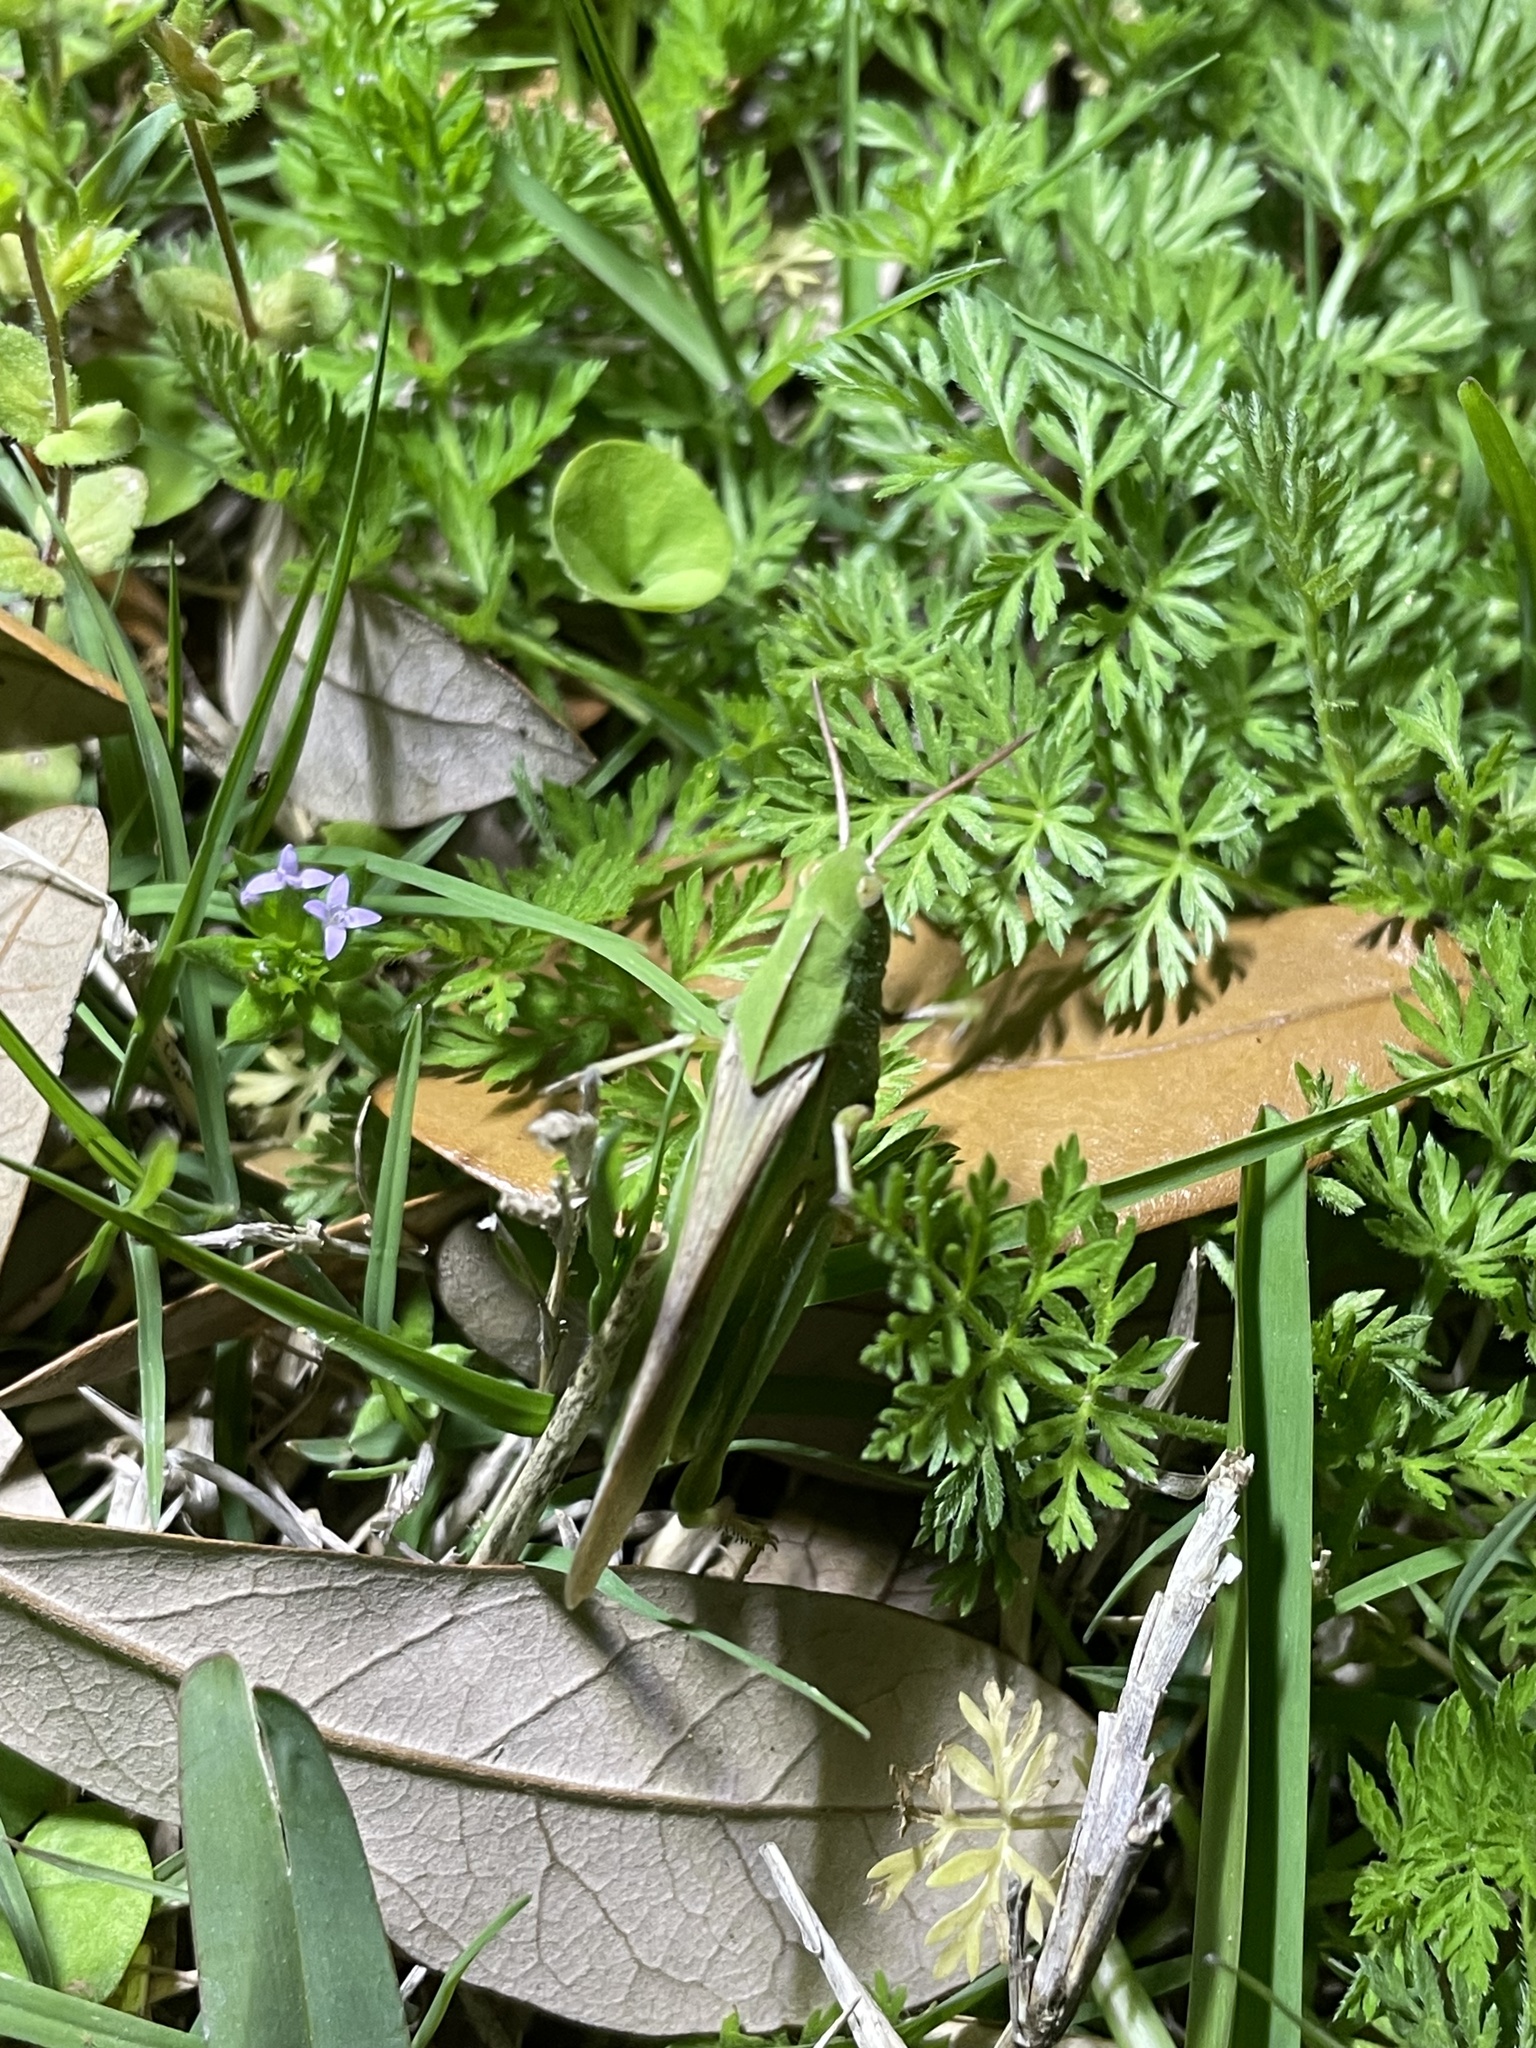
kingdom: Animalia
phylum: Arthropoda
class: Insecta
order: Orthoptera
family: Acrididae
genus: Chortophaga
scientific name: Chortophaga viridifasciata
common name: Green-striped grasshopper
